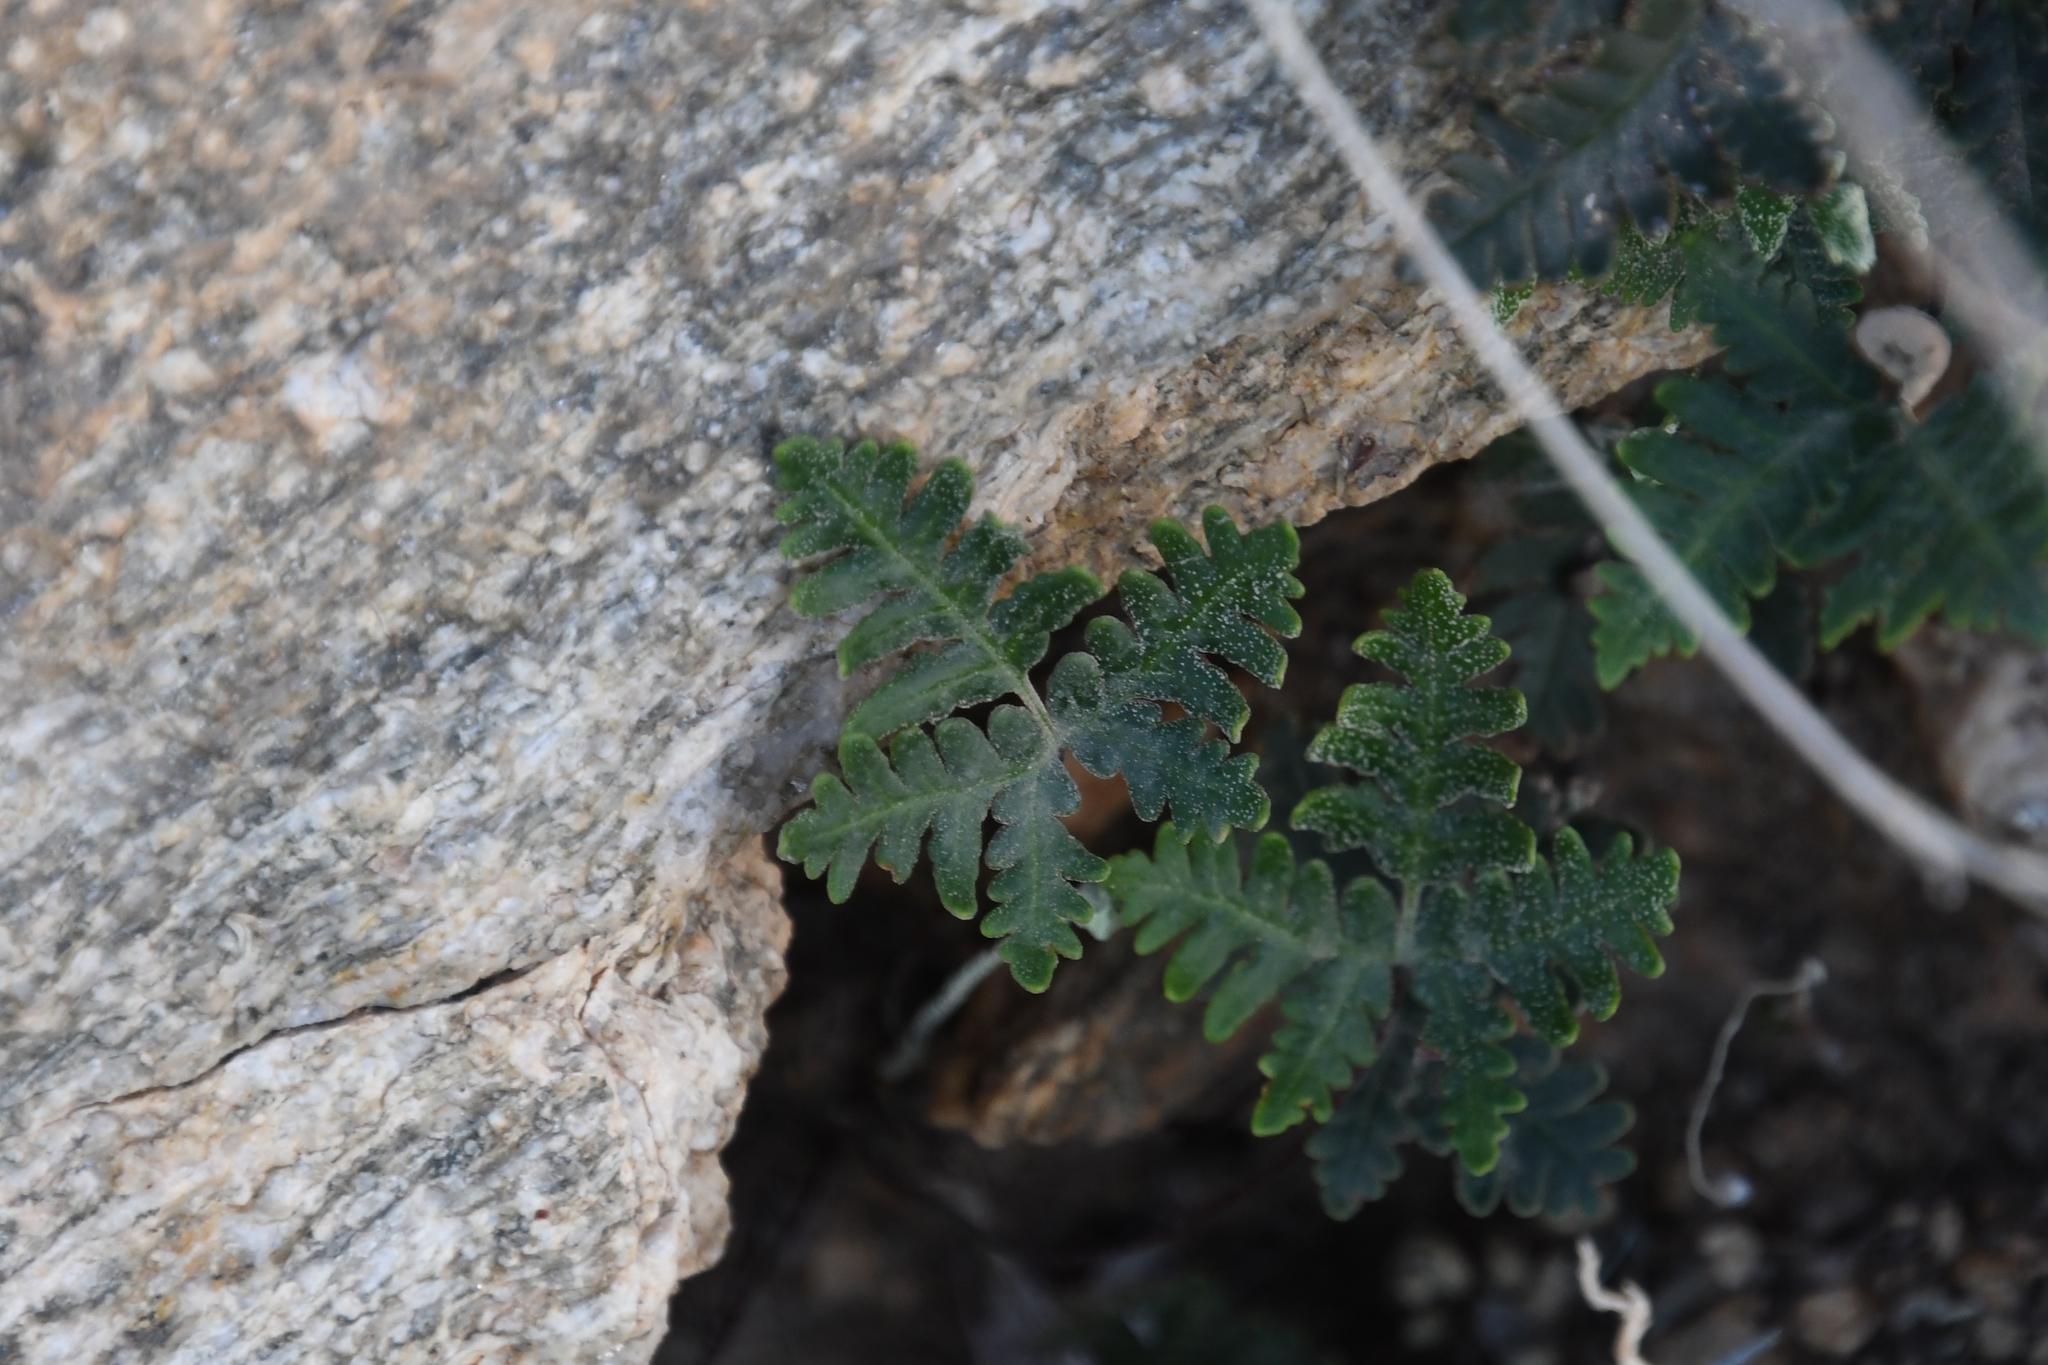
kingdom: Plantae
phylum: Tracheophyta
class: Polypodiopsida
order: Polypodiales
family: Pteridaceae
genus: Notholaena
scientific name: Notholaena standleyi
